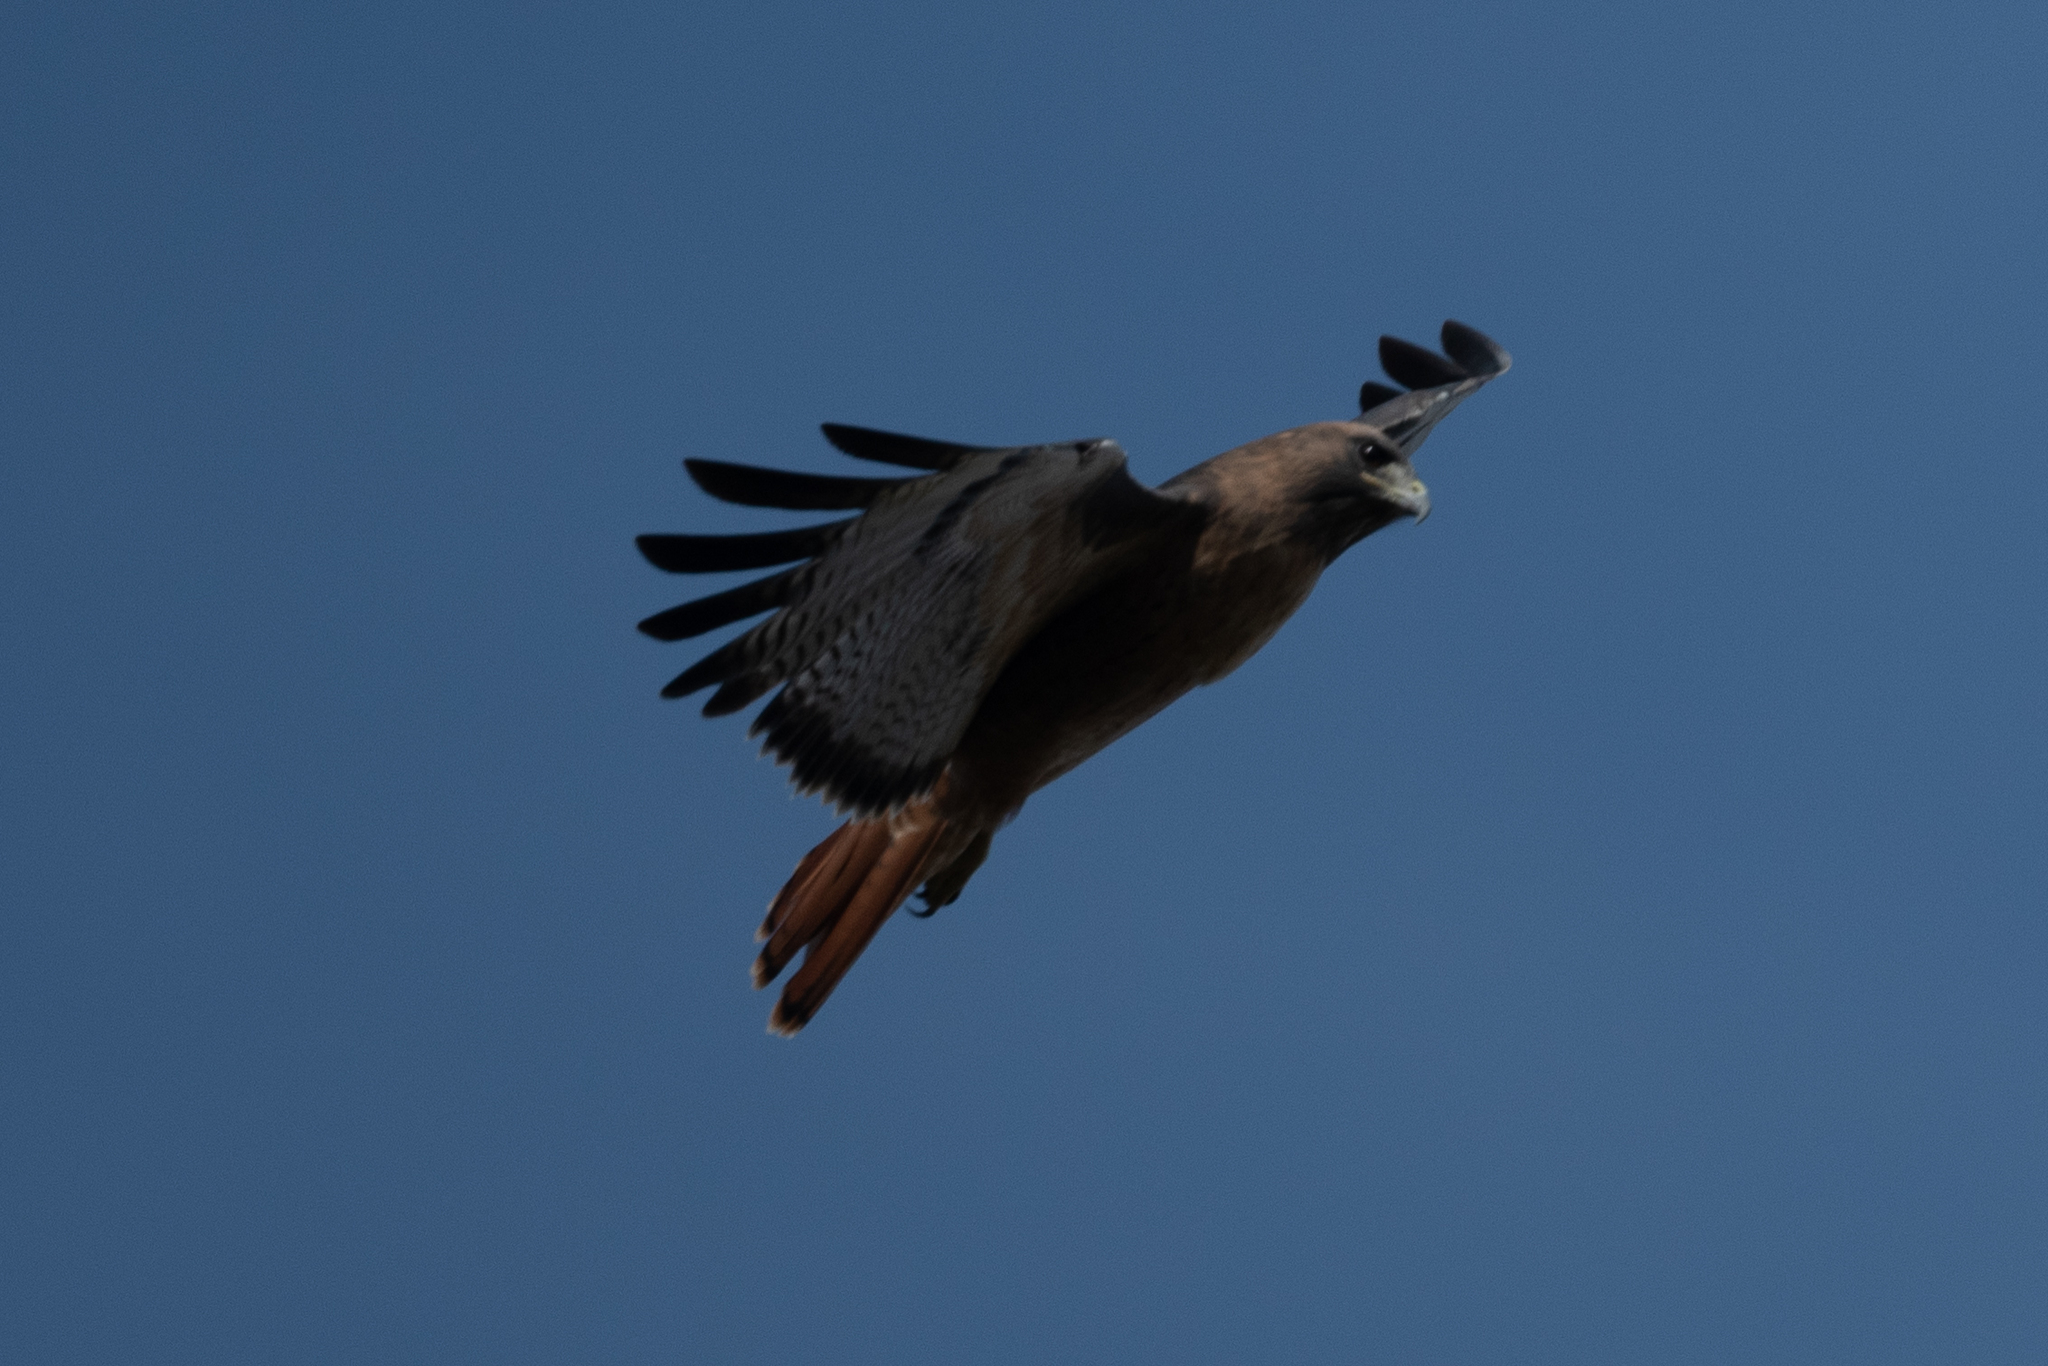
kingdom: Animalia
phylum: Chordata
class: Aves
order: Accipitriformes
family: Accipitridae
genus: Buteo
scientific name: Buteo jamaicensis
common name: Red-tailed hawk
